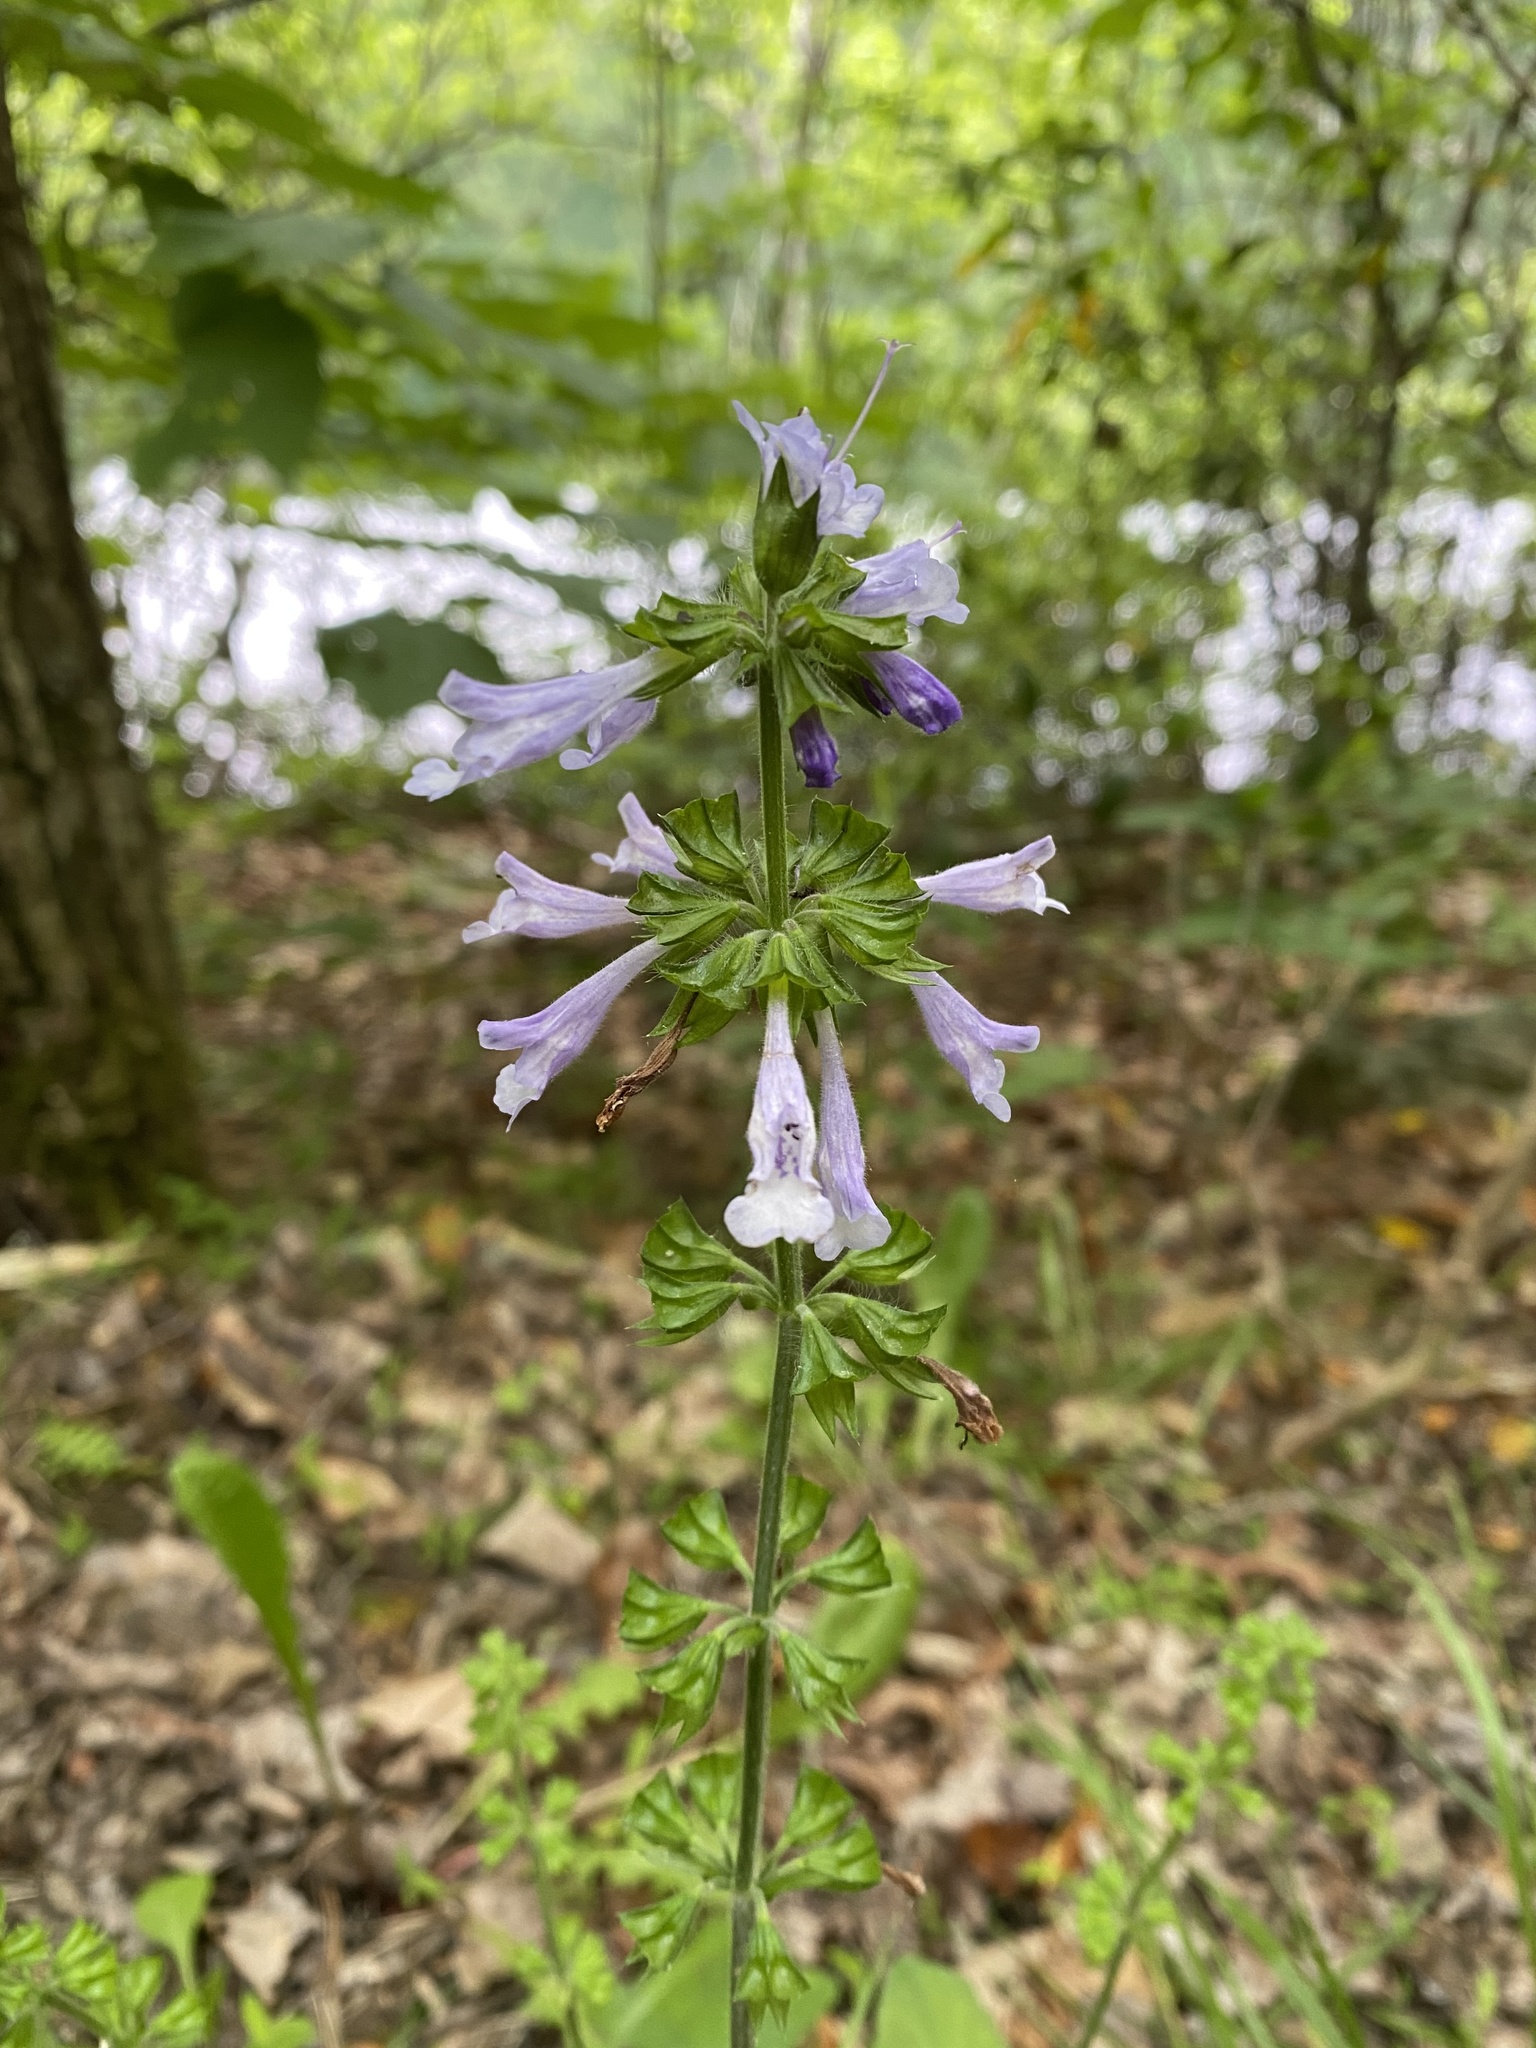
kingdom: Plantae
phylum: Tracheophyta
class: Magnoliopsida
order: Lamiales
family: Lamiaceae
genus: Salvia
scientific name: Salvia lyrata
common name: Cancerweed
